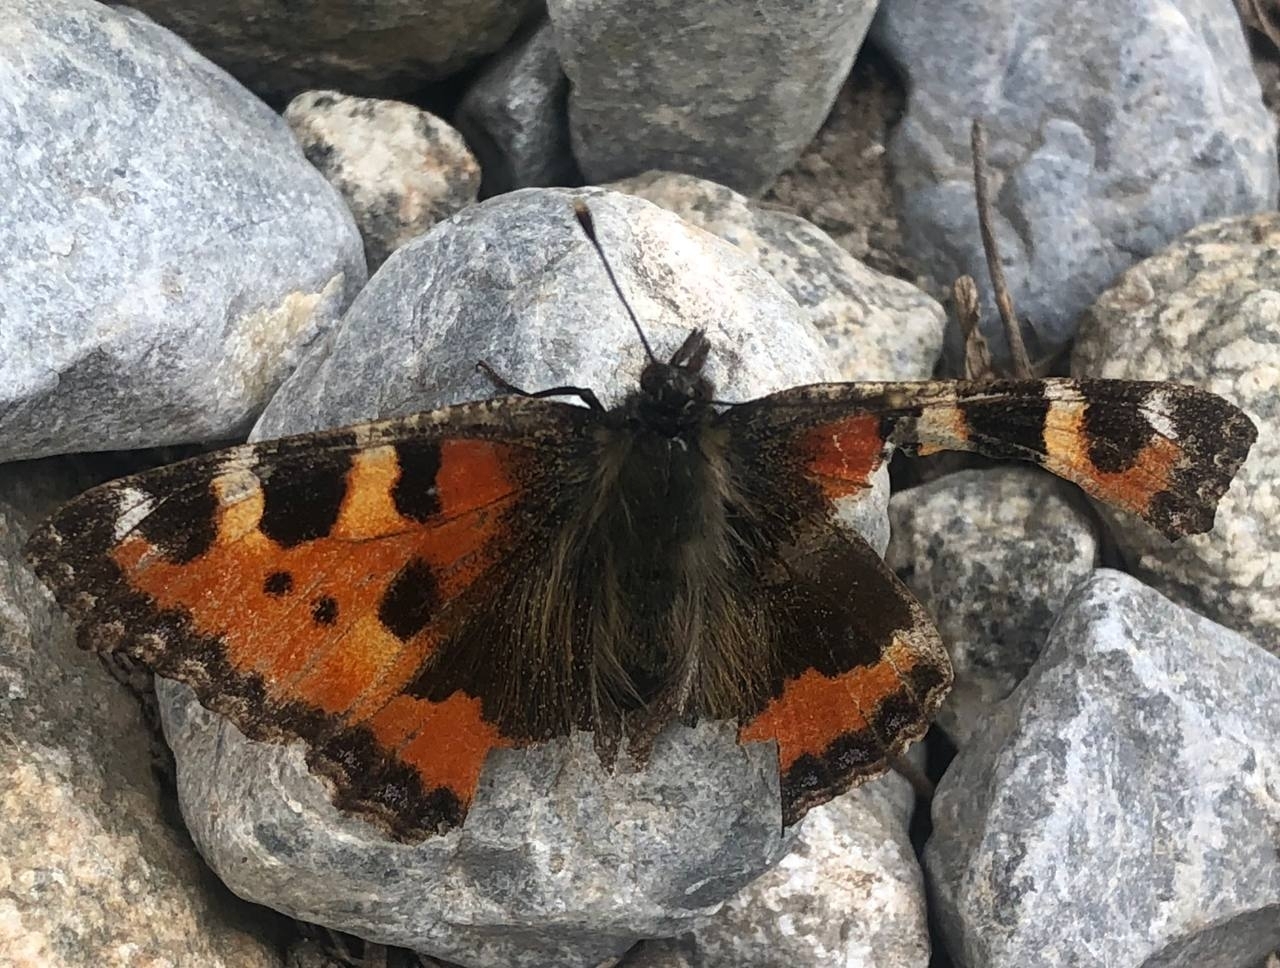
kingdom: Animalia
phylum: Arthropoda
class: Insecta
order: Lepidoptera
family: Nymphalidae
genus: Aglais
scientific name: Aglais urticae
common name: Small tortoiseshell
